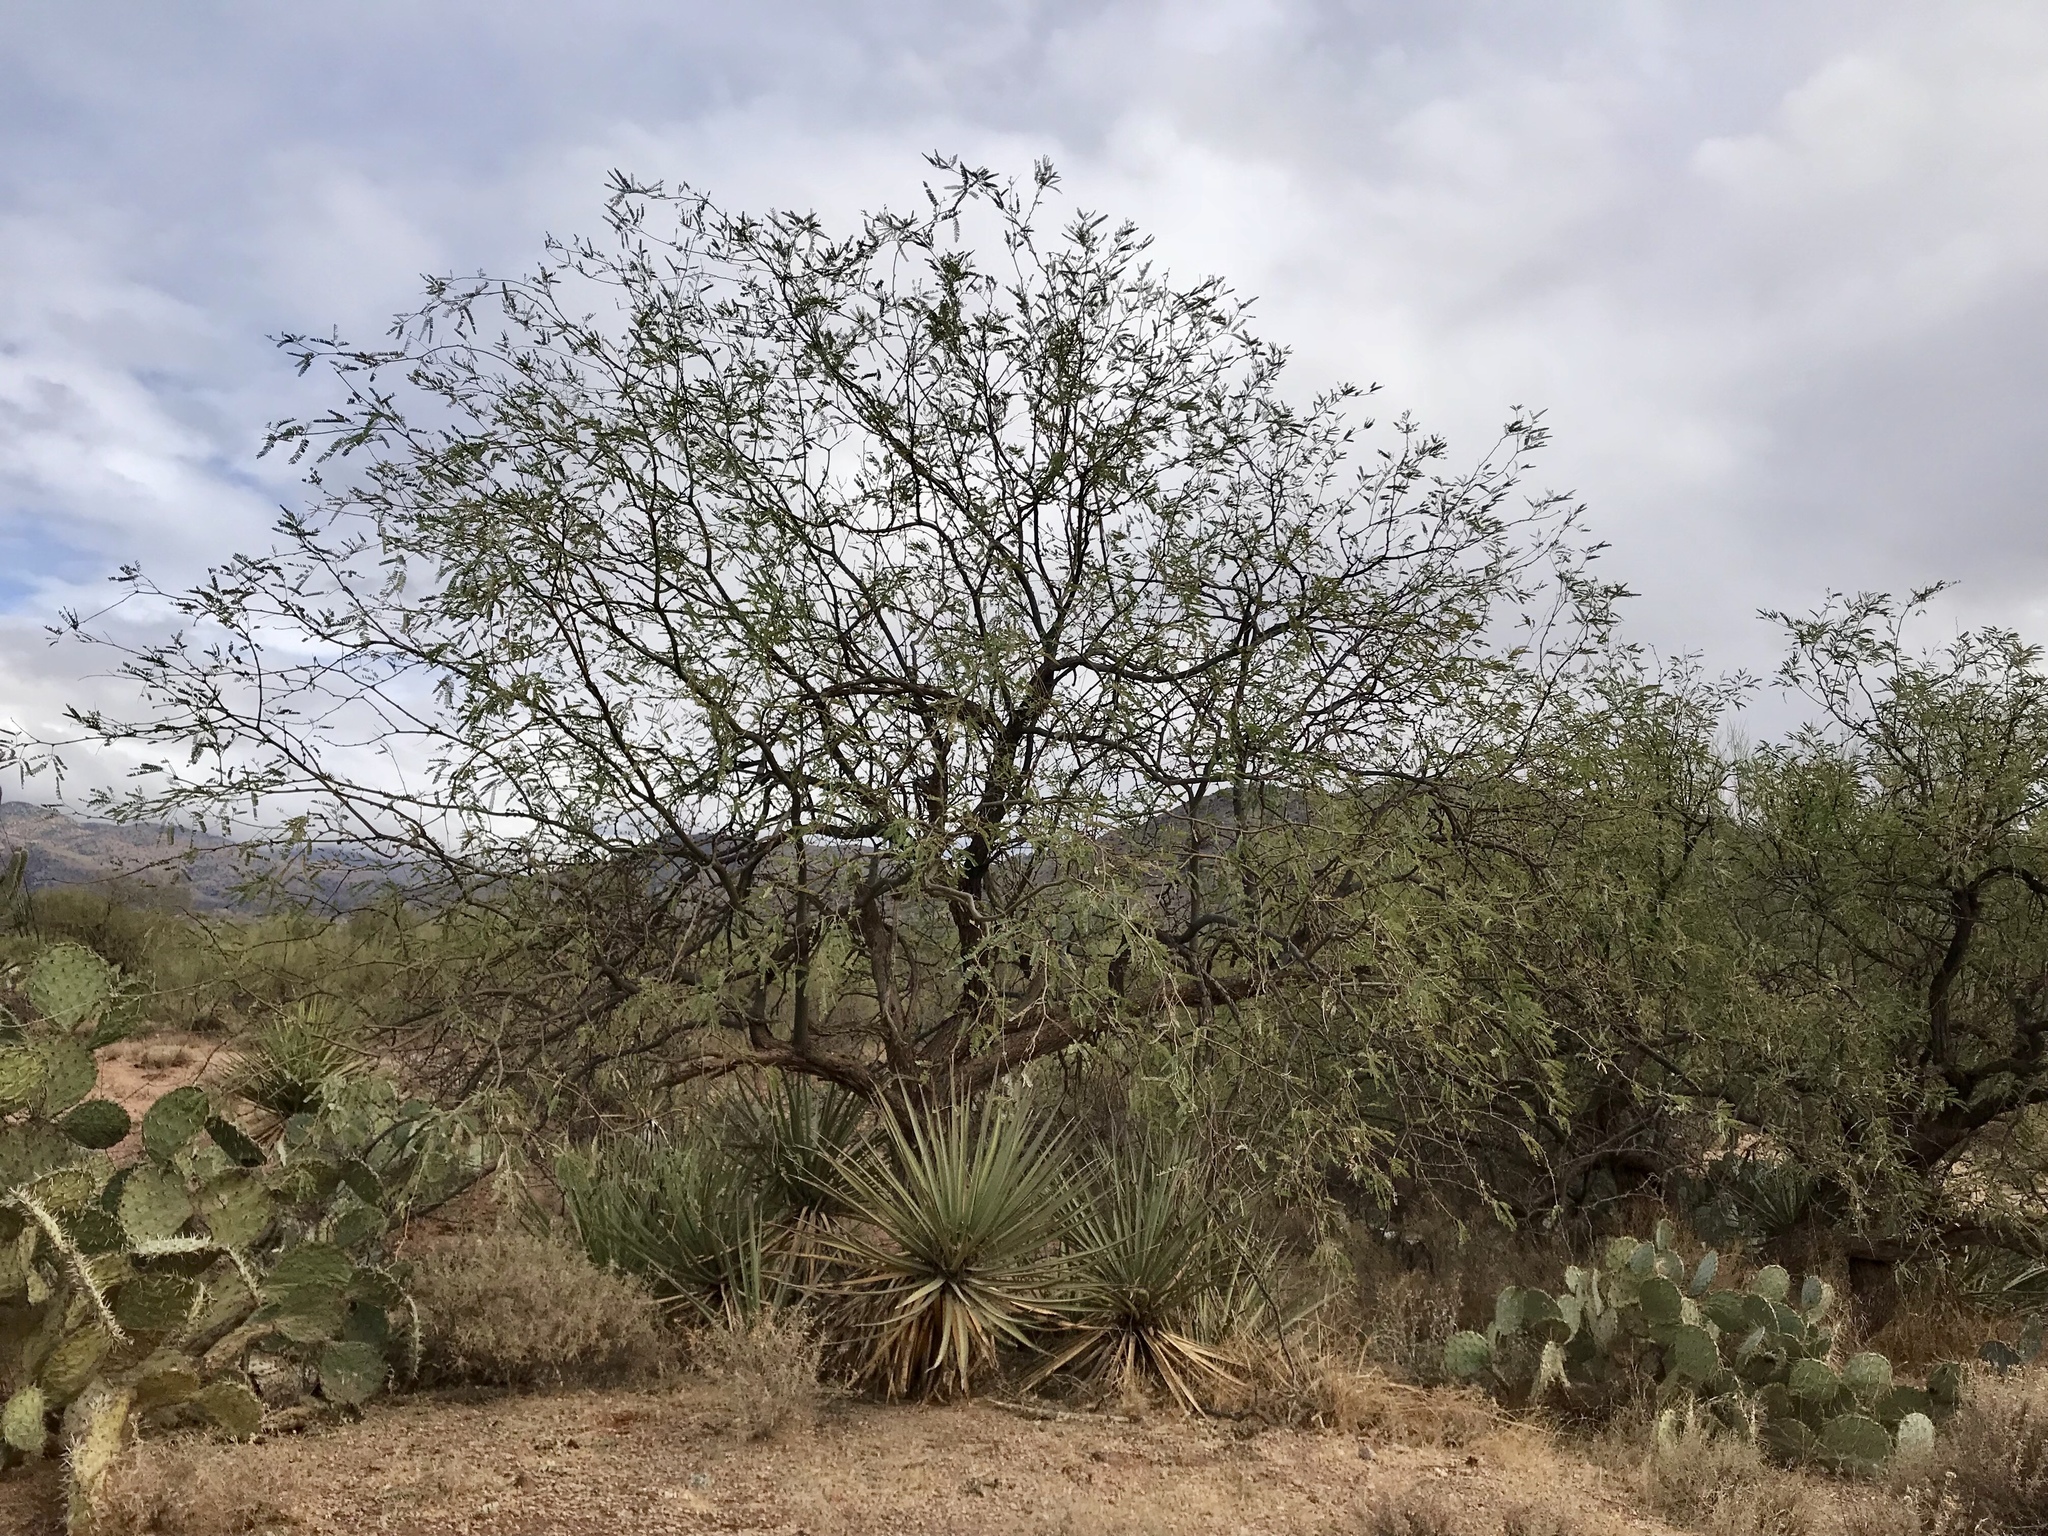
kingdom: Plantae
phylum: Tracheophyta
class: Magnoliopsida
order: Fabales
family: Fabaceae
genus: Prosopis
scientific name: Prosopis velutina
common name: Velvet mesquite
